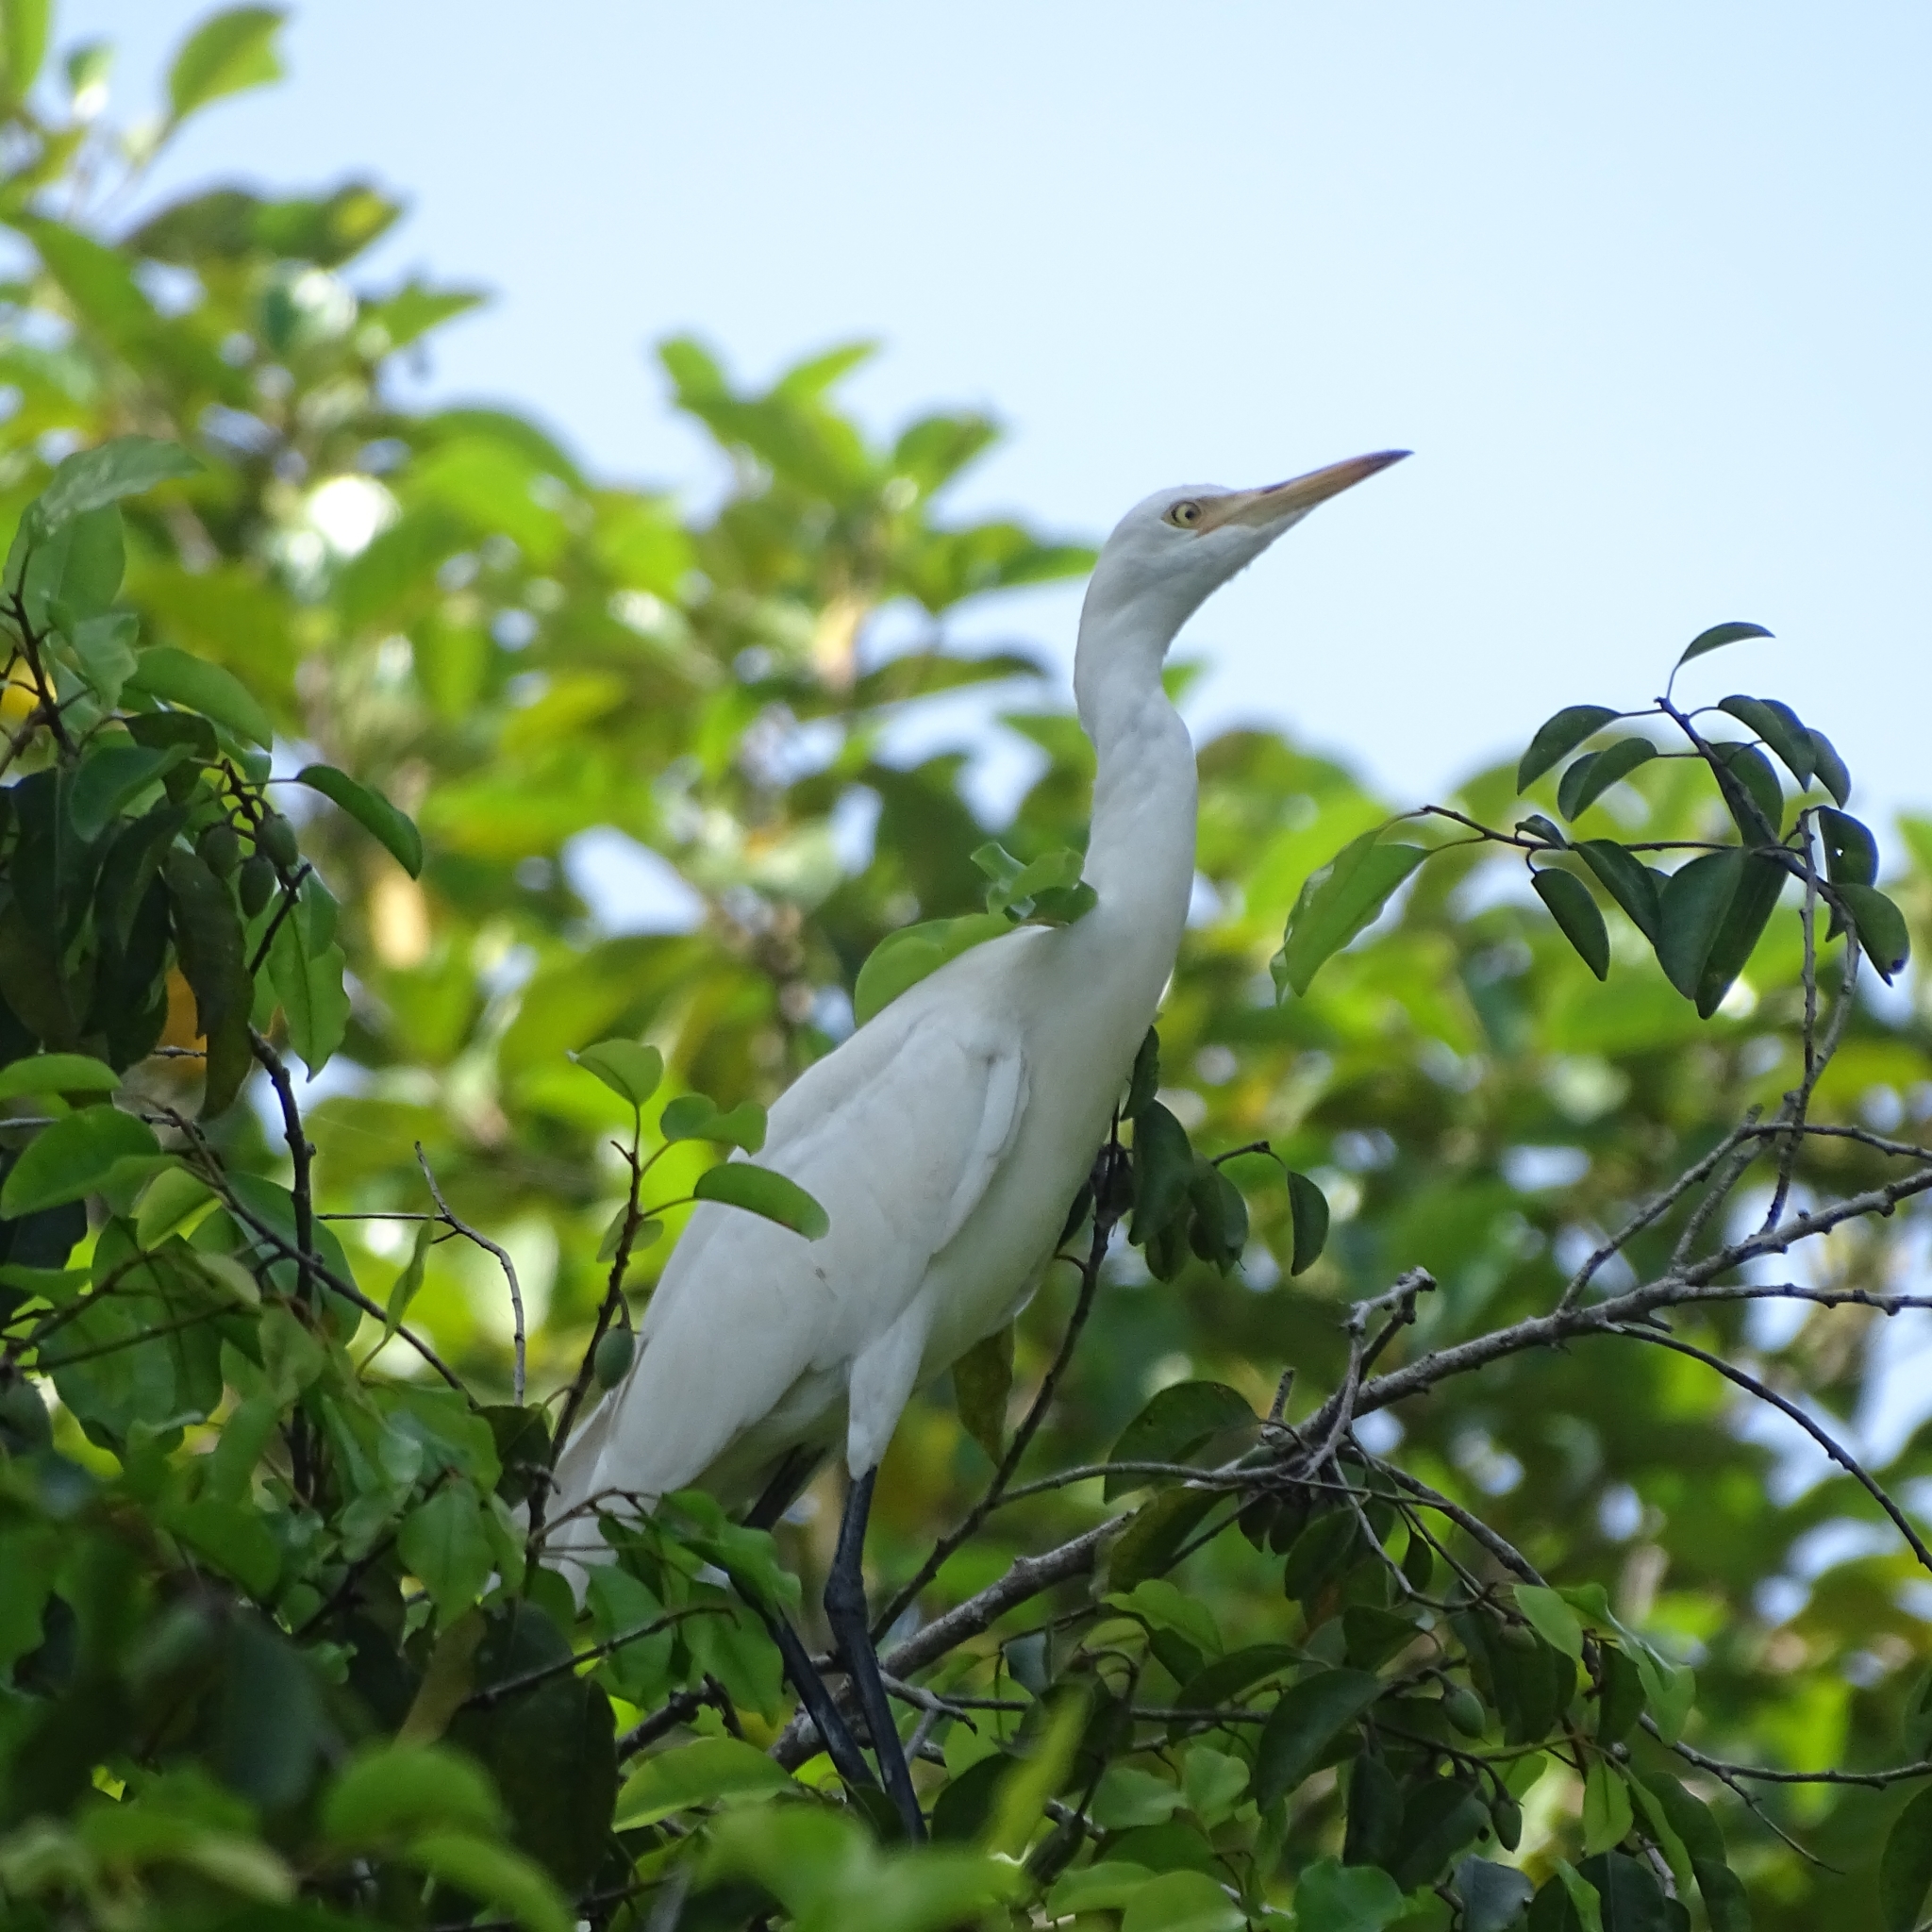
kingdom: Animalia
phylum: Chordata
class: Aves
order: Pelecaniformes
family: Ardeidae
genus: Bubulcus
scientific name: Bubulcus coromandus
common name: Eastern cattle egret
